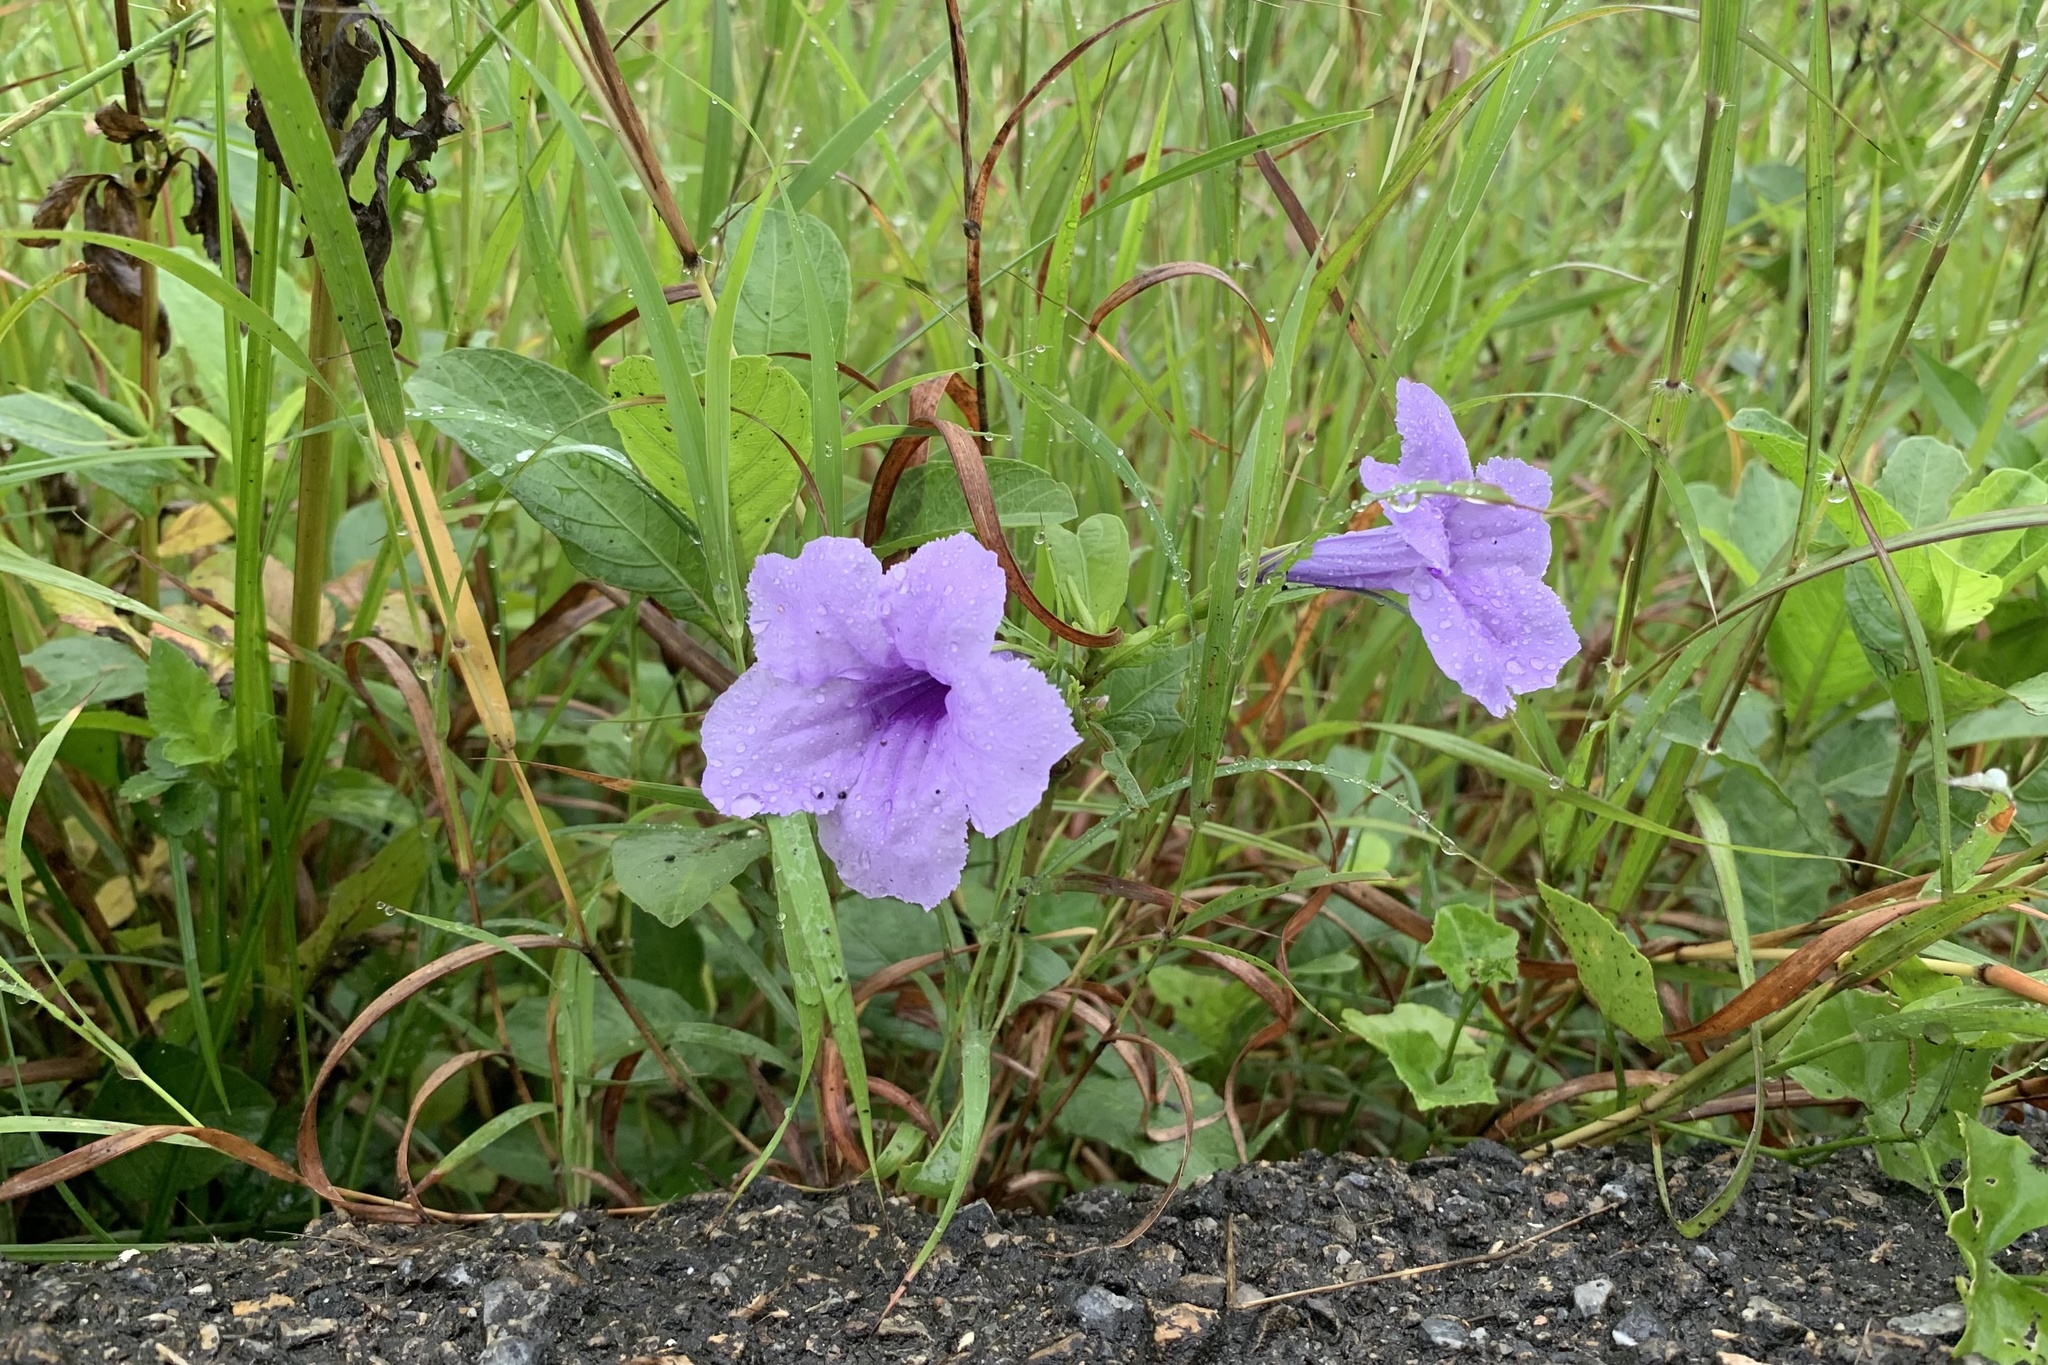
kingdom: Plantae
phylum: Tracheophyta
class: Magnoliopsida
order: Lamiales
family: Acanthaceae
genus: Ruellia
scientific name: Ruellia tuberosa
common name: Devil's bit
